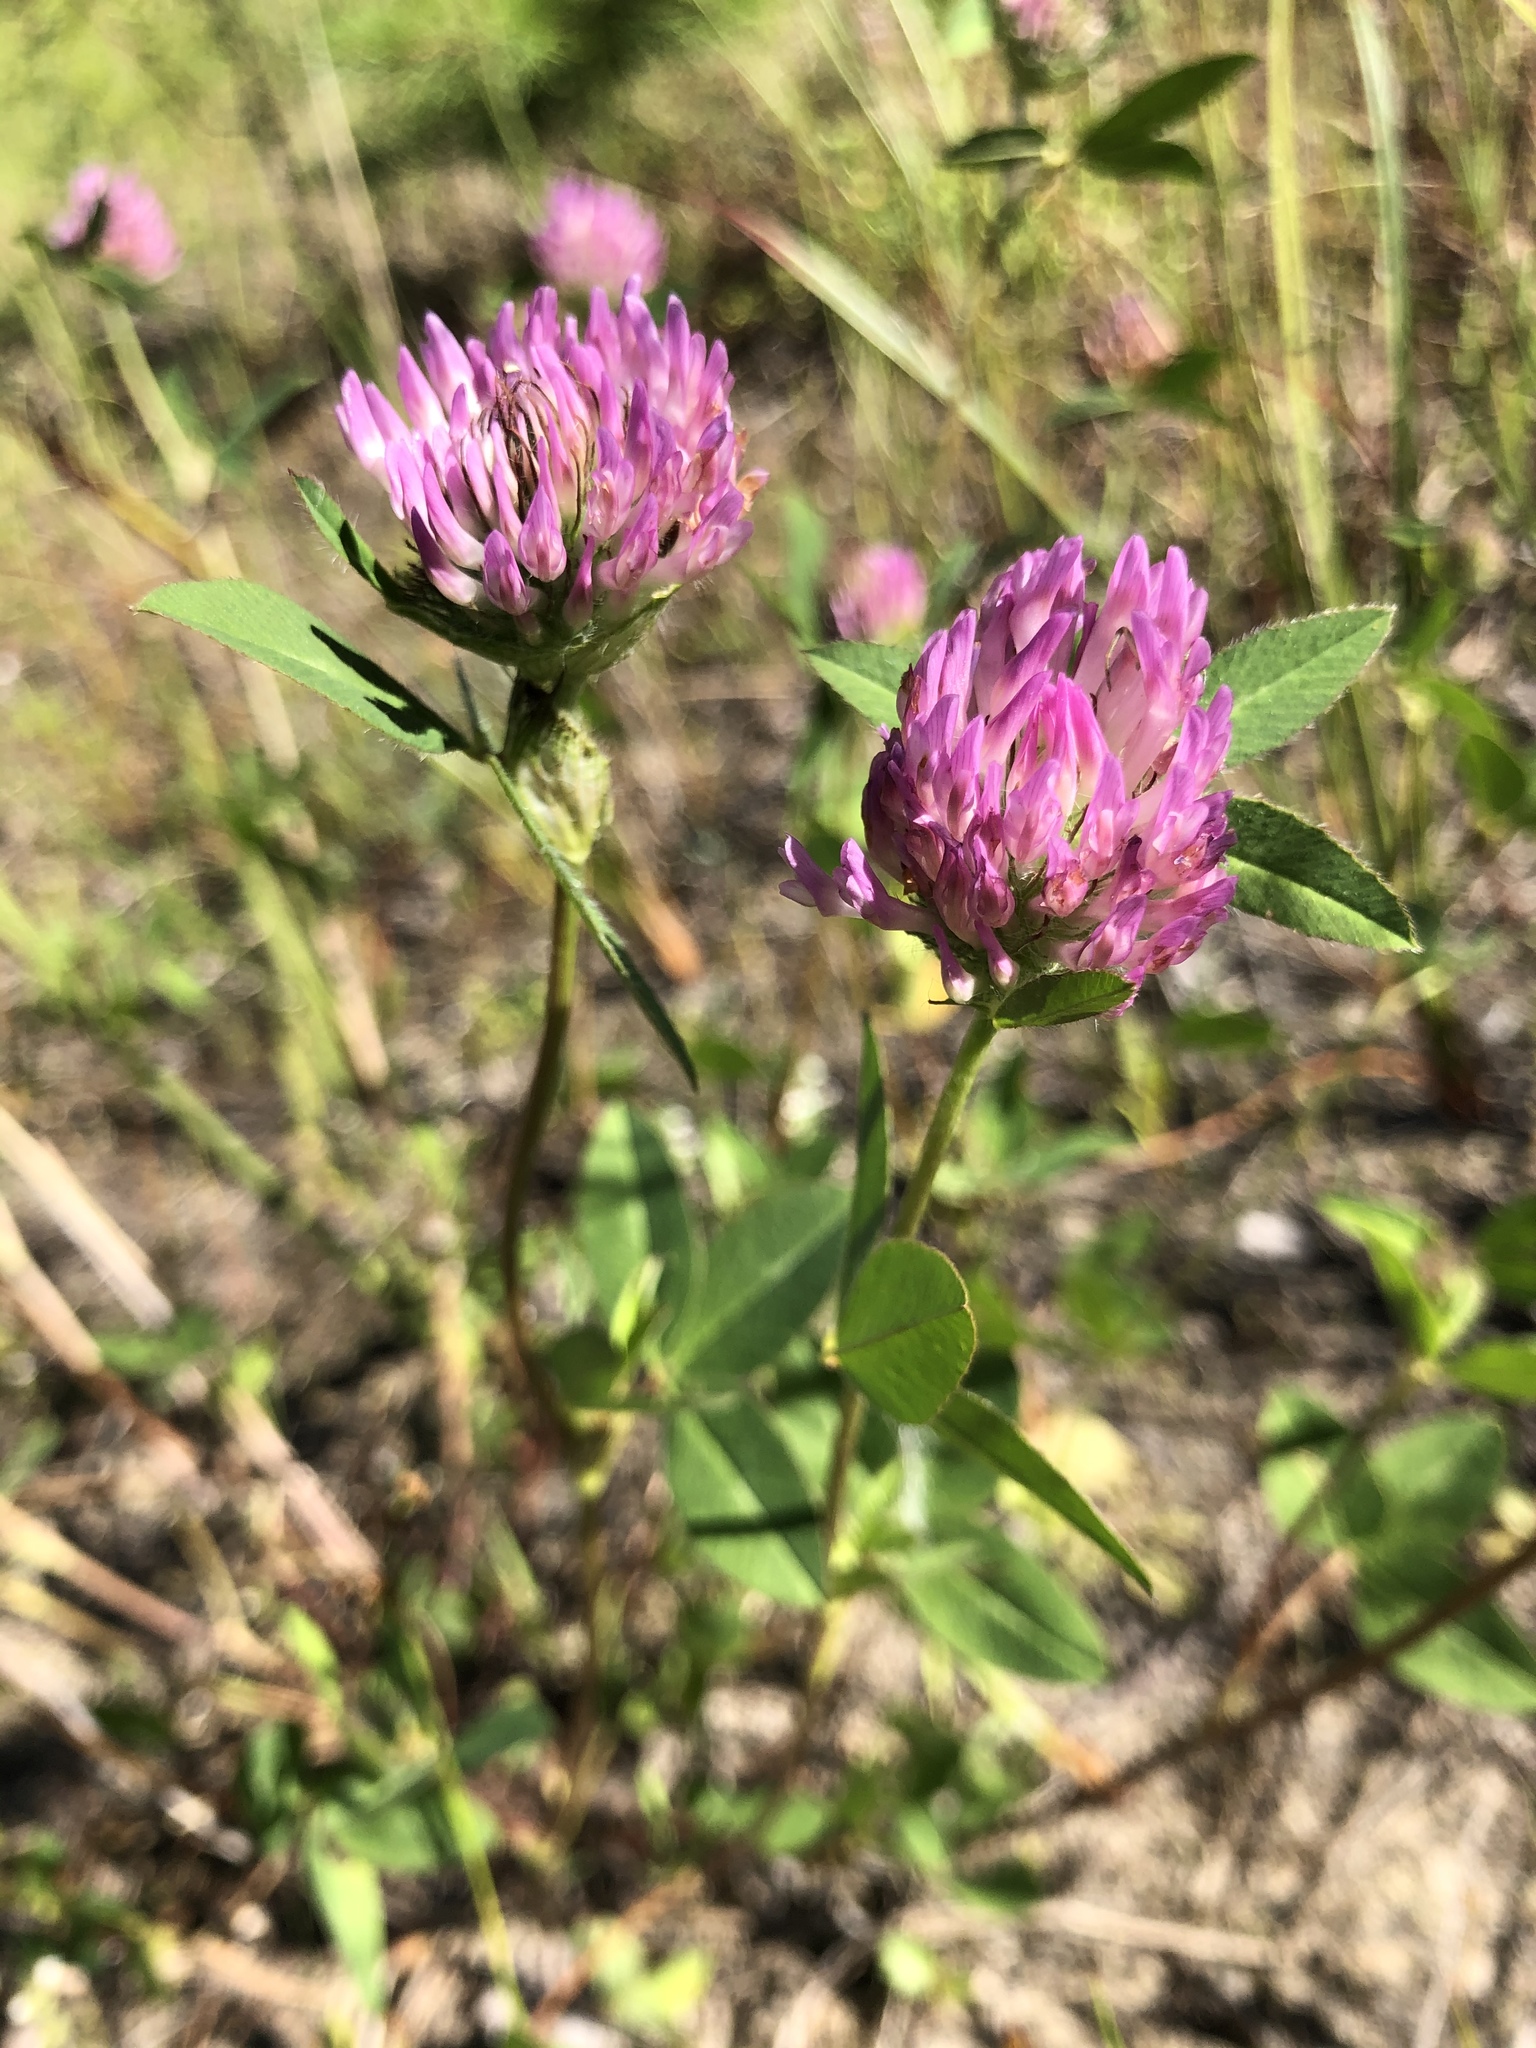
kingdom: Plantae
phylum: Tracheophyta
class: Magnoliopsida
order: Fabales
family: Fabaceae
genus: Trifolium
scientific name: Trifolium pratense
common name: Red clover
